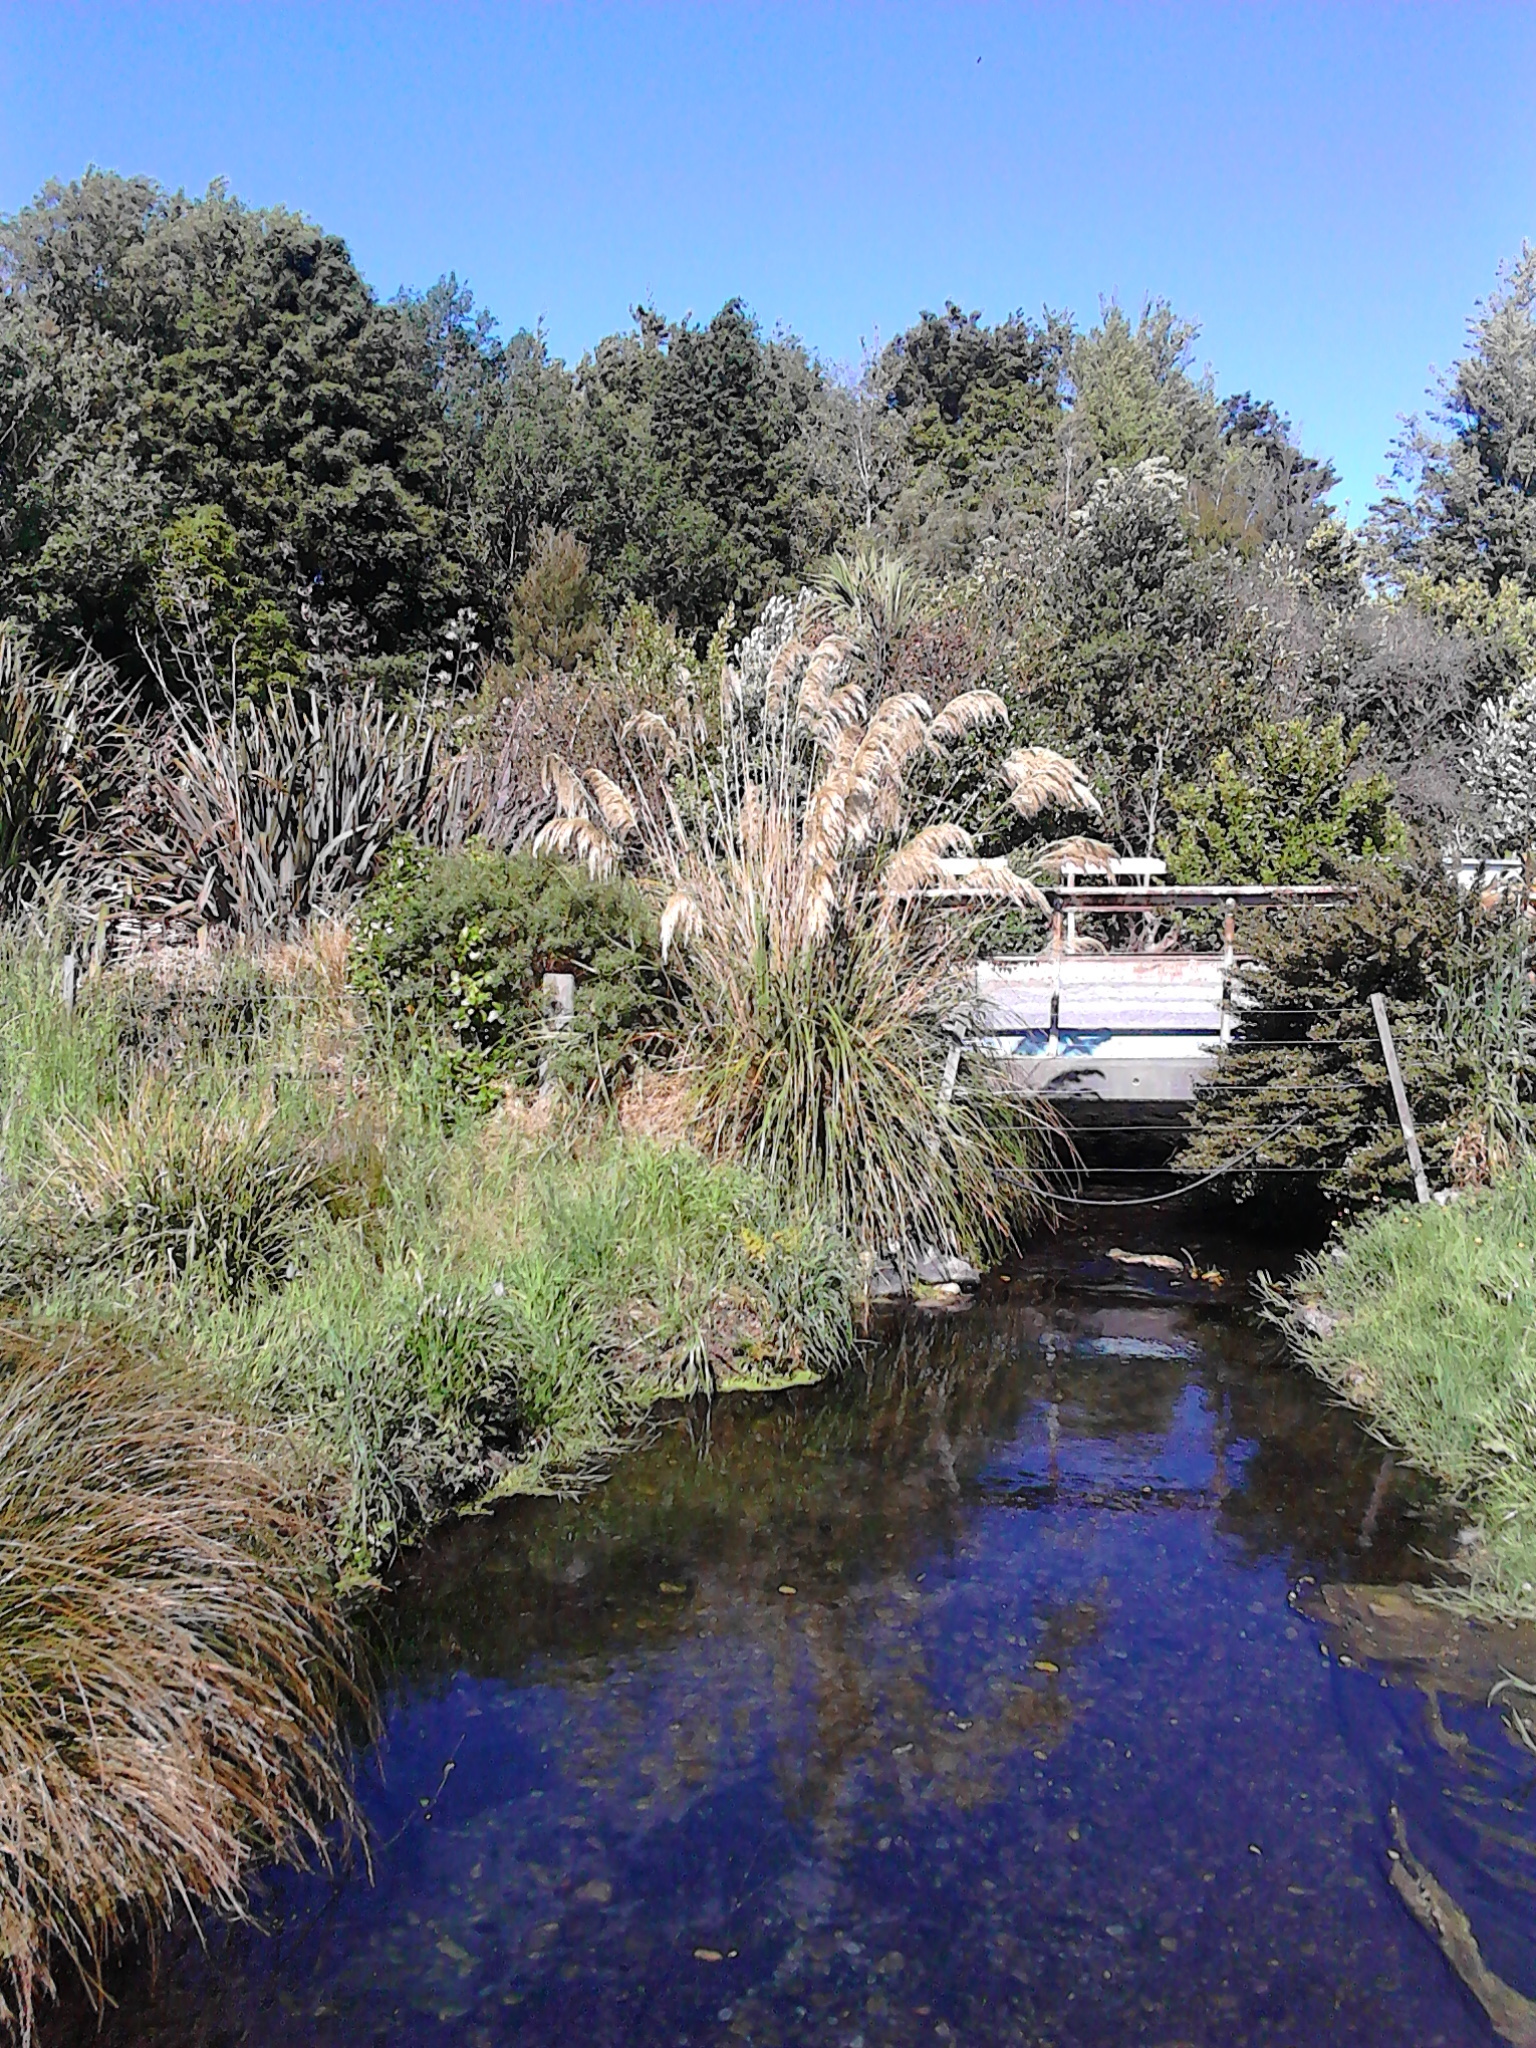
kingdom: Plantae
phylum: Tracheophyta
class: Liliopsida
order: Poales
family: Poaceae
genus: Austroderia
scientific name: Austroderia richardii
